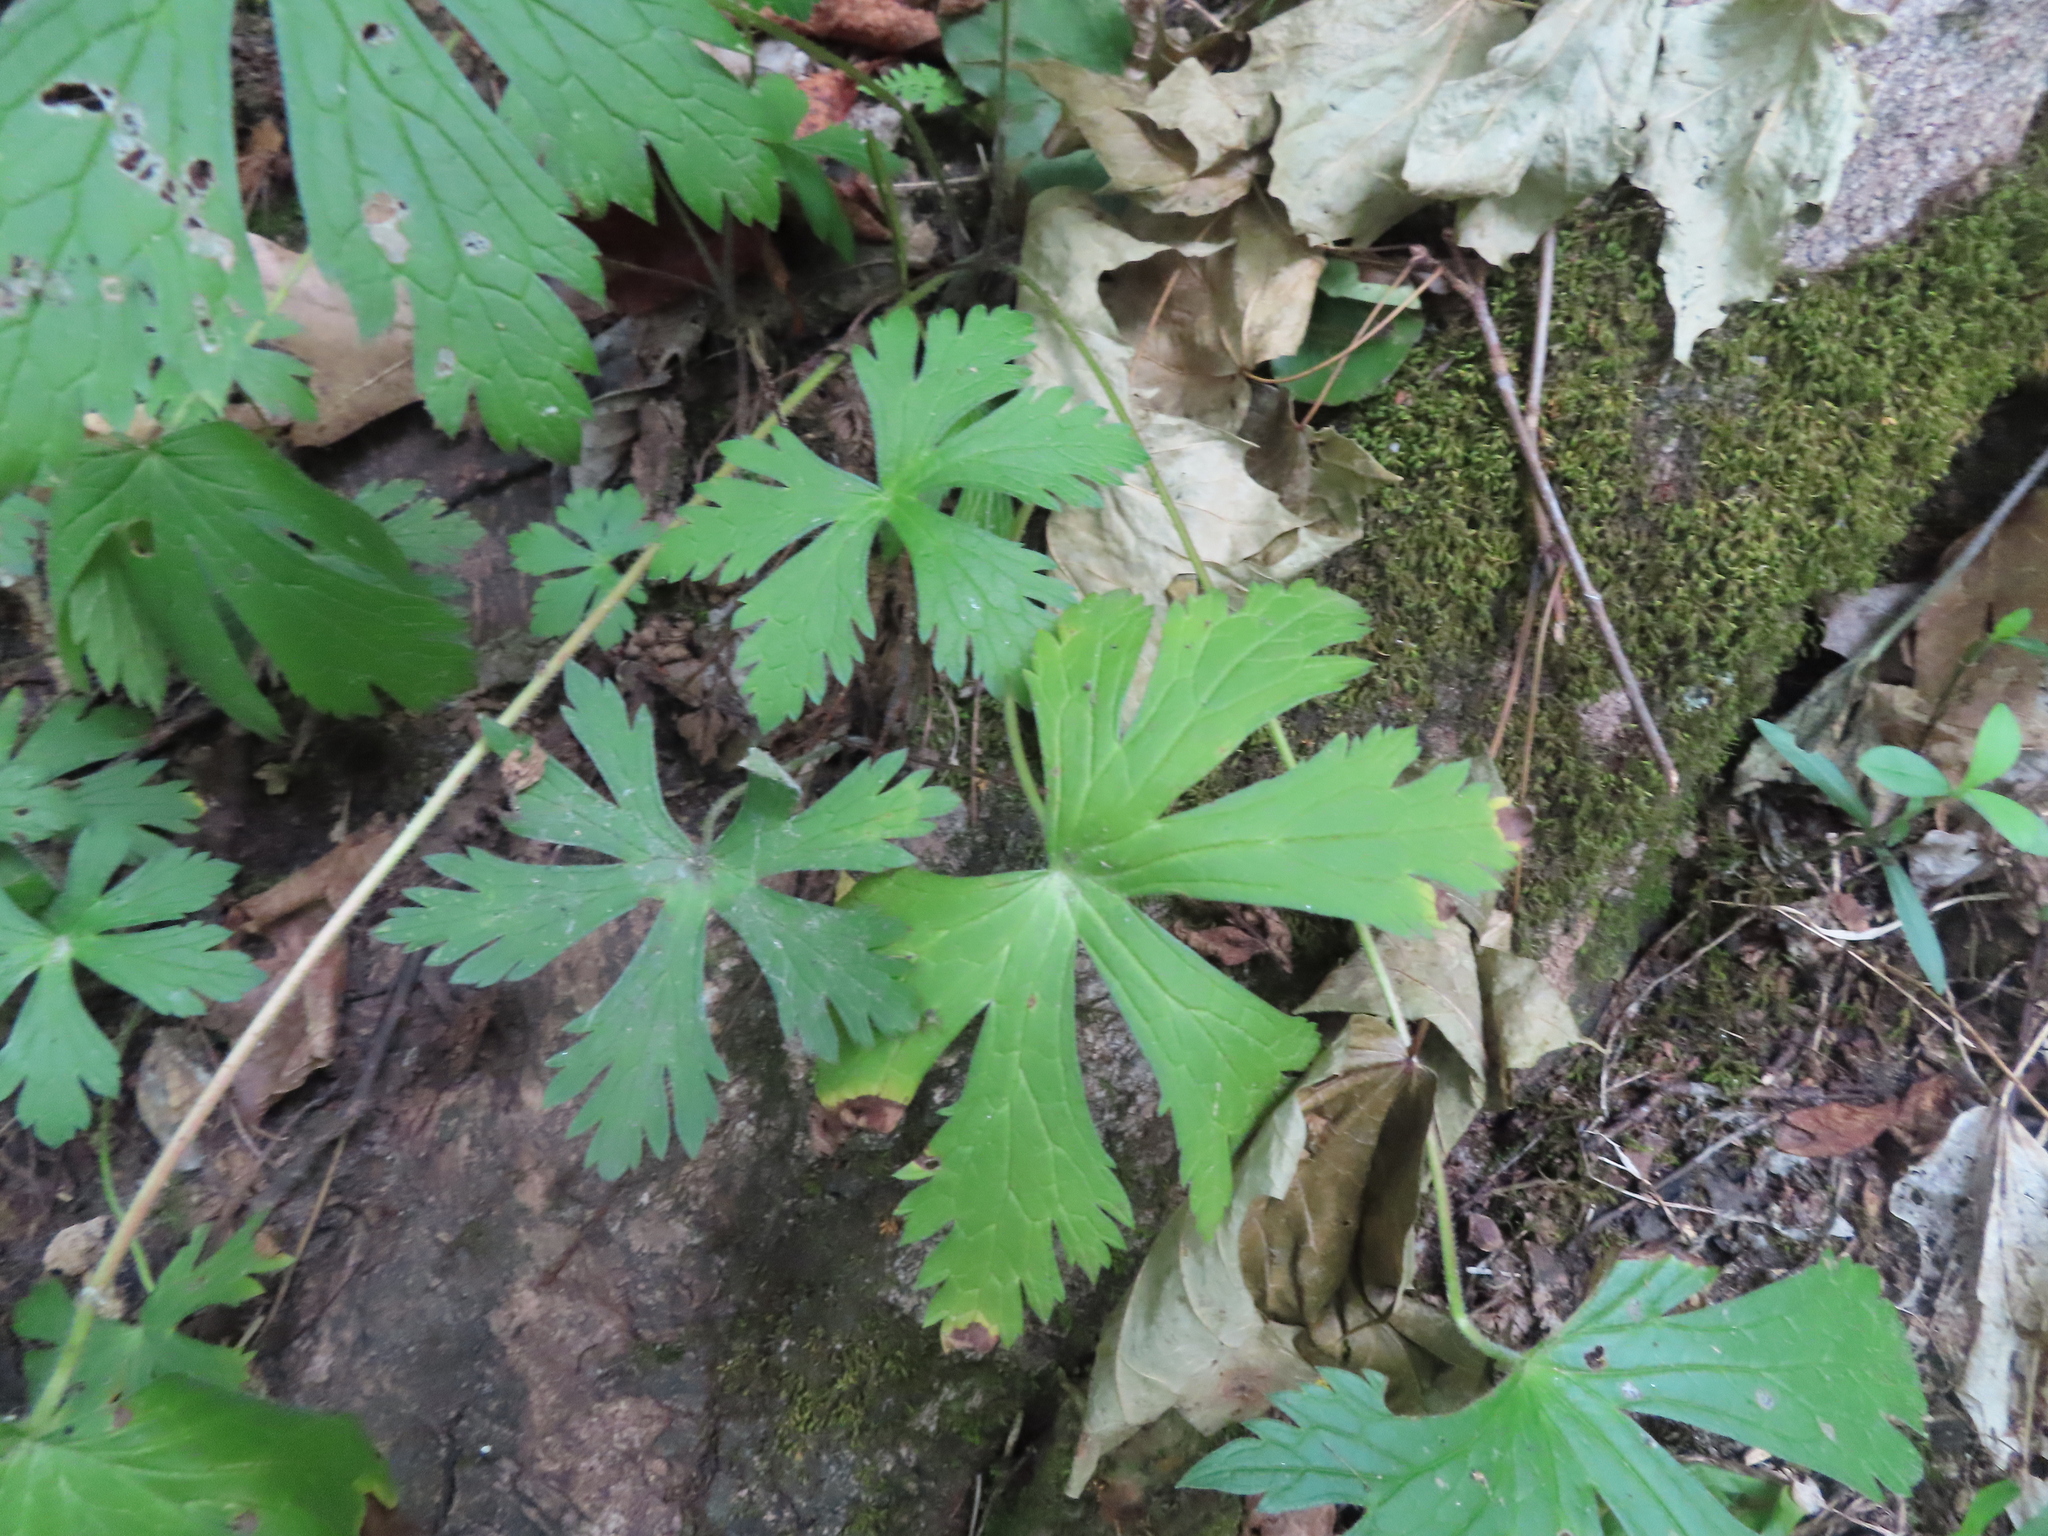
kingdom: Plantae
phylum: Tracheophyta
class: Magnoliopsida
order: Geraniales
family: Geraniaceae
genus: Geranium
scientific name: Geranium maculatum
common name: Spotted geranium
